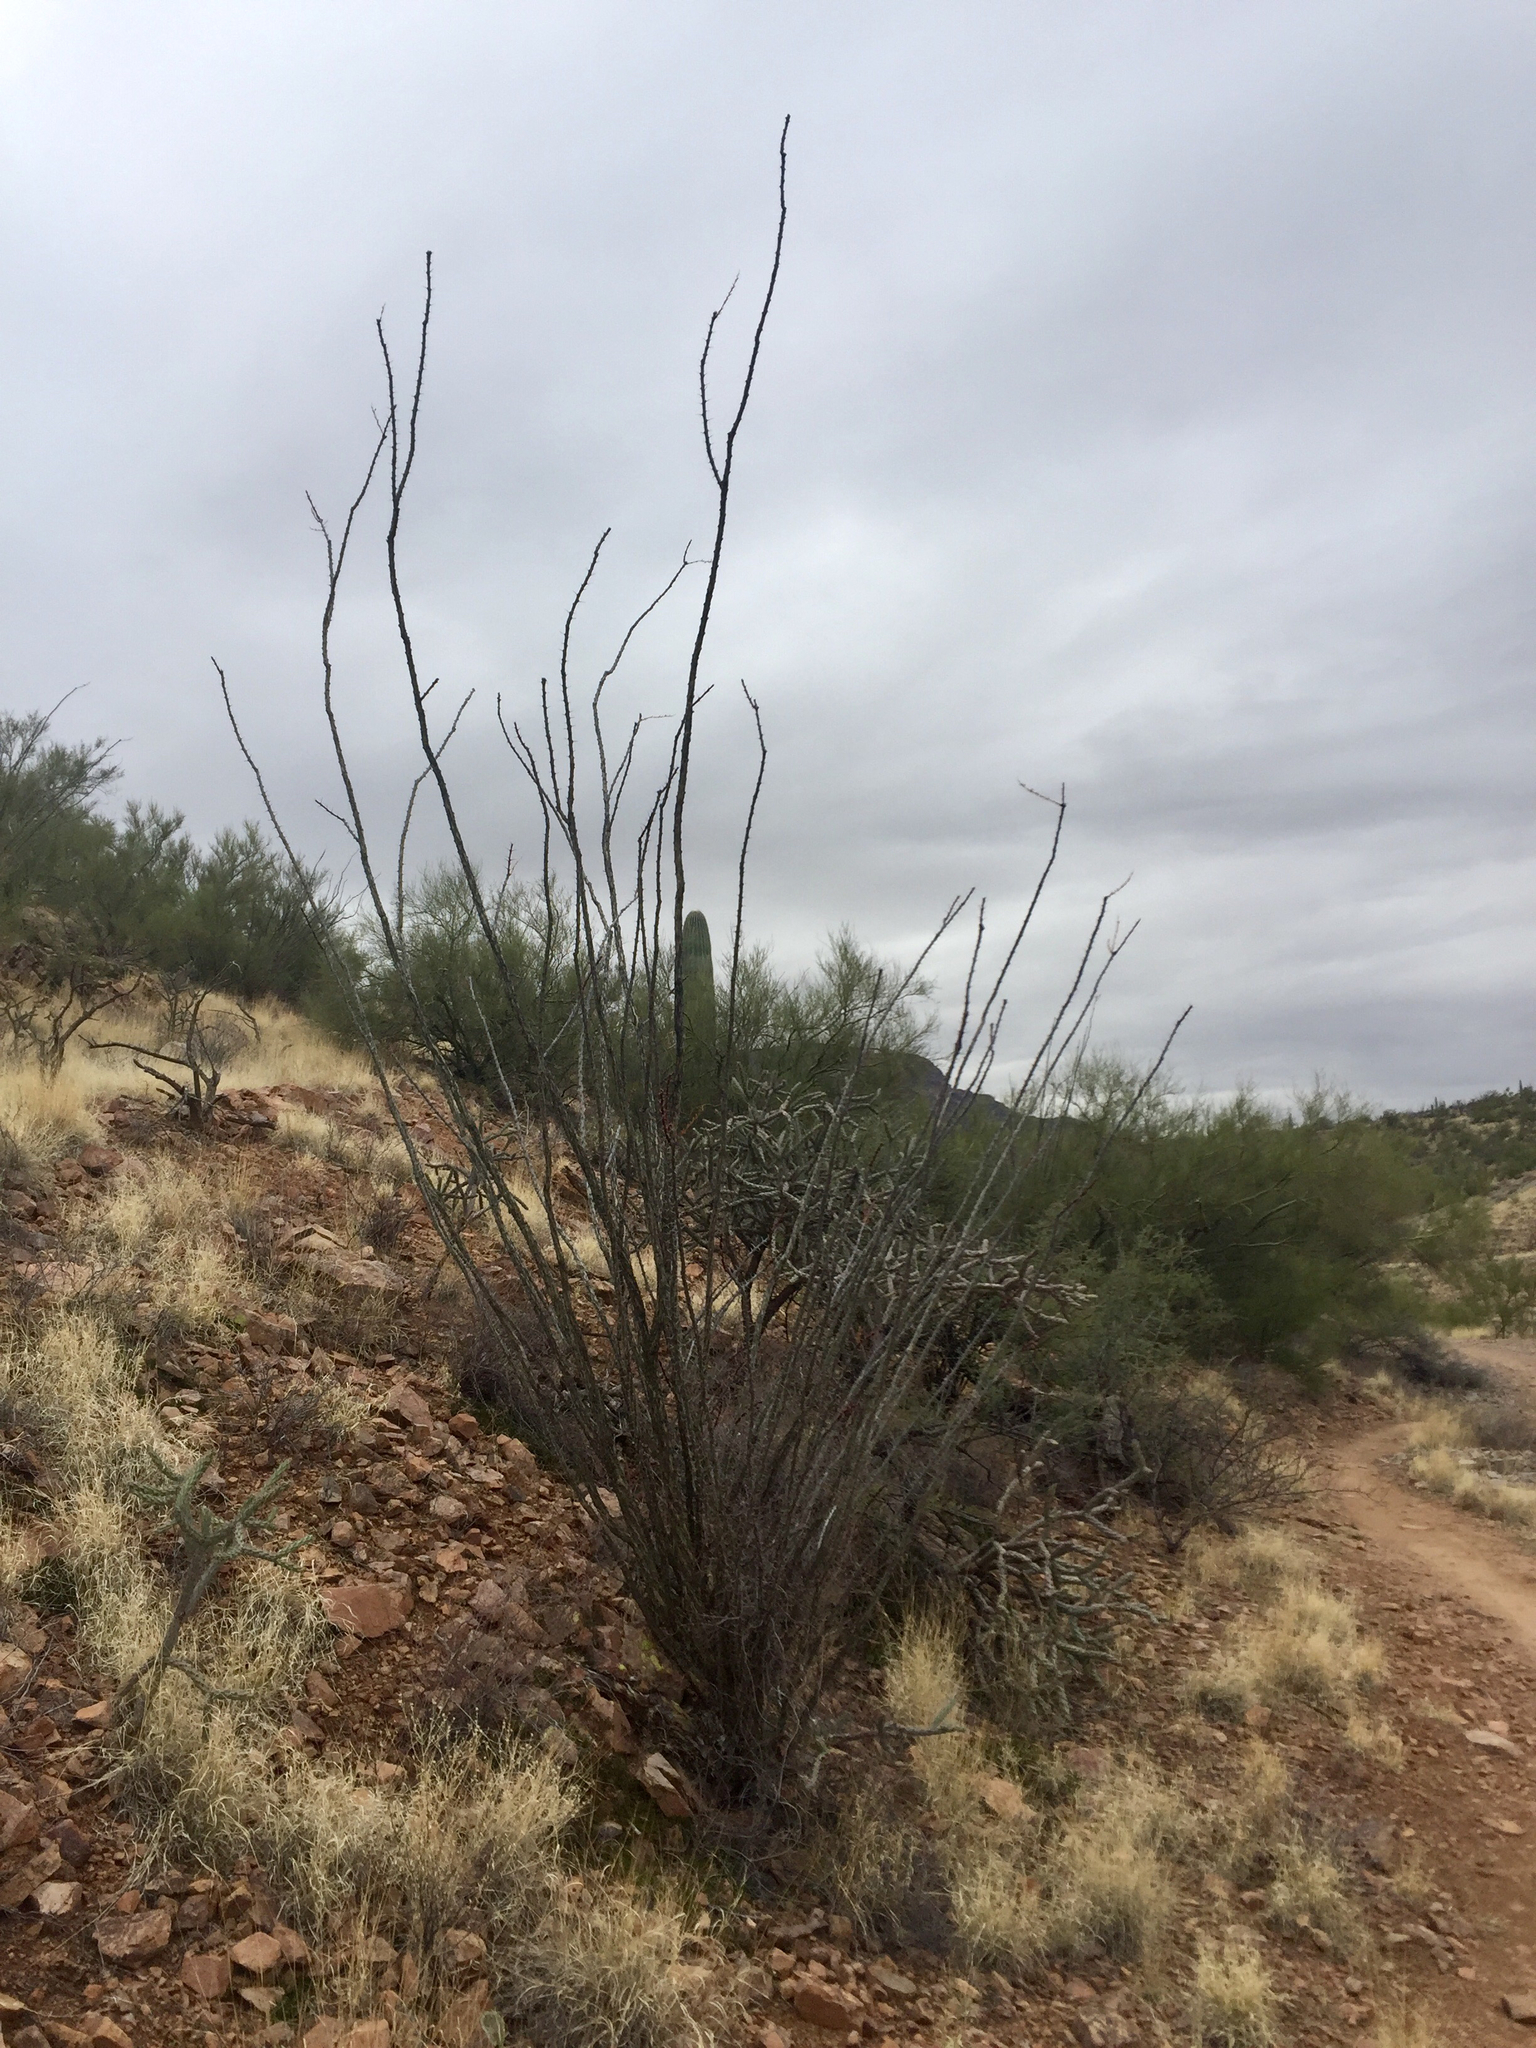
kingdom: Plantae
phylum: Tracheophyta
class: Magnoliopsida
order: Ericales
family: Fouquieriaceae
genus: Fouquieria
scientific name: Fouquieria splendens
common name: Vine-cactus
